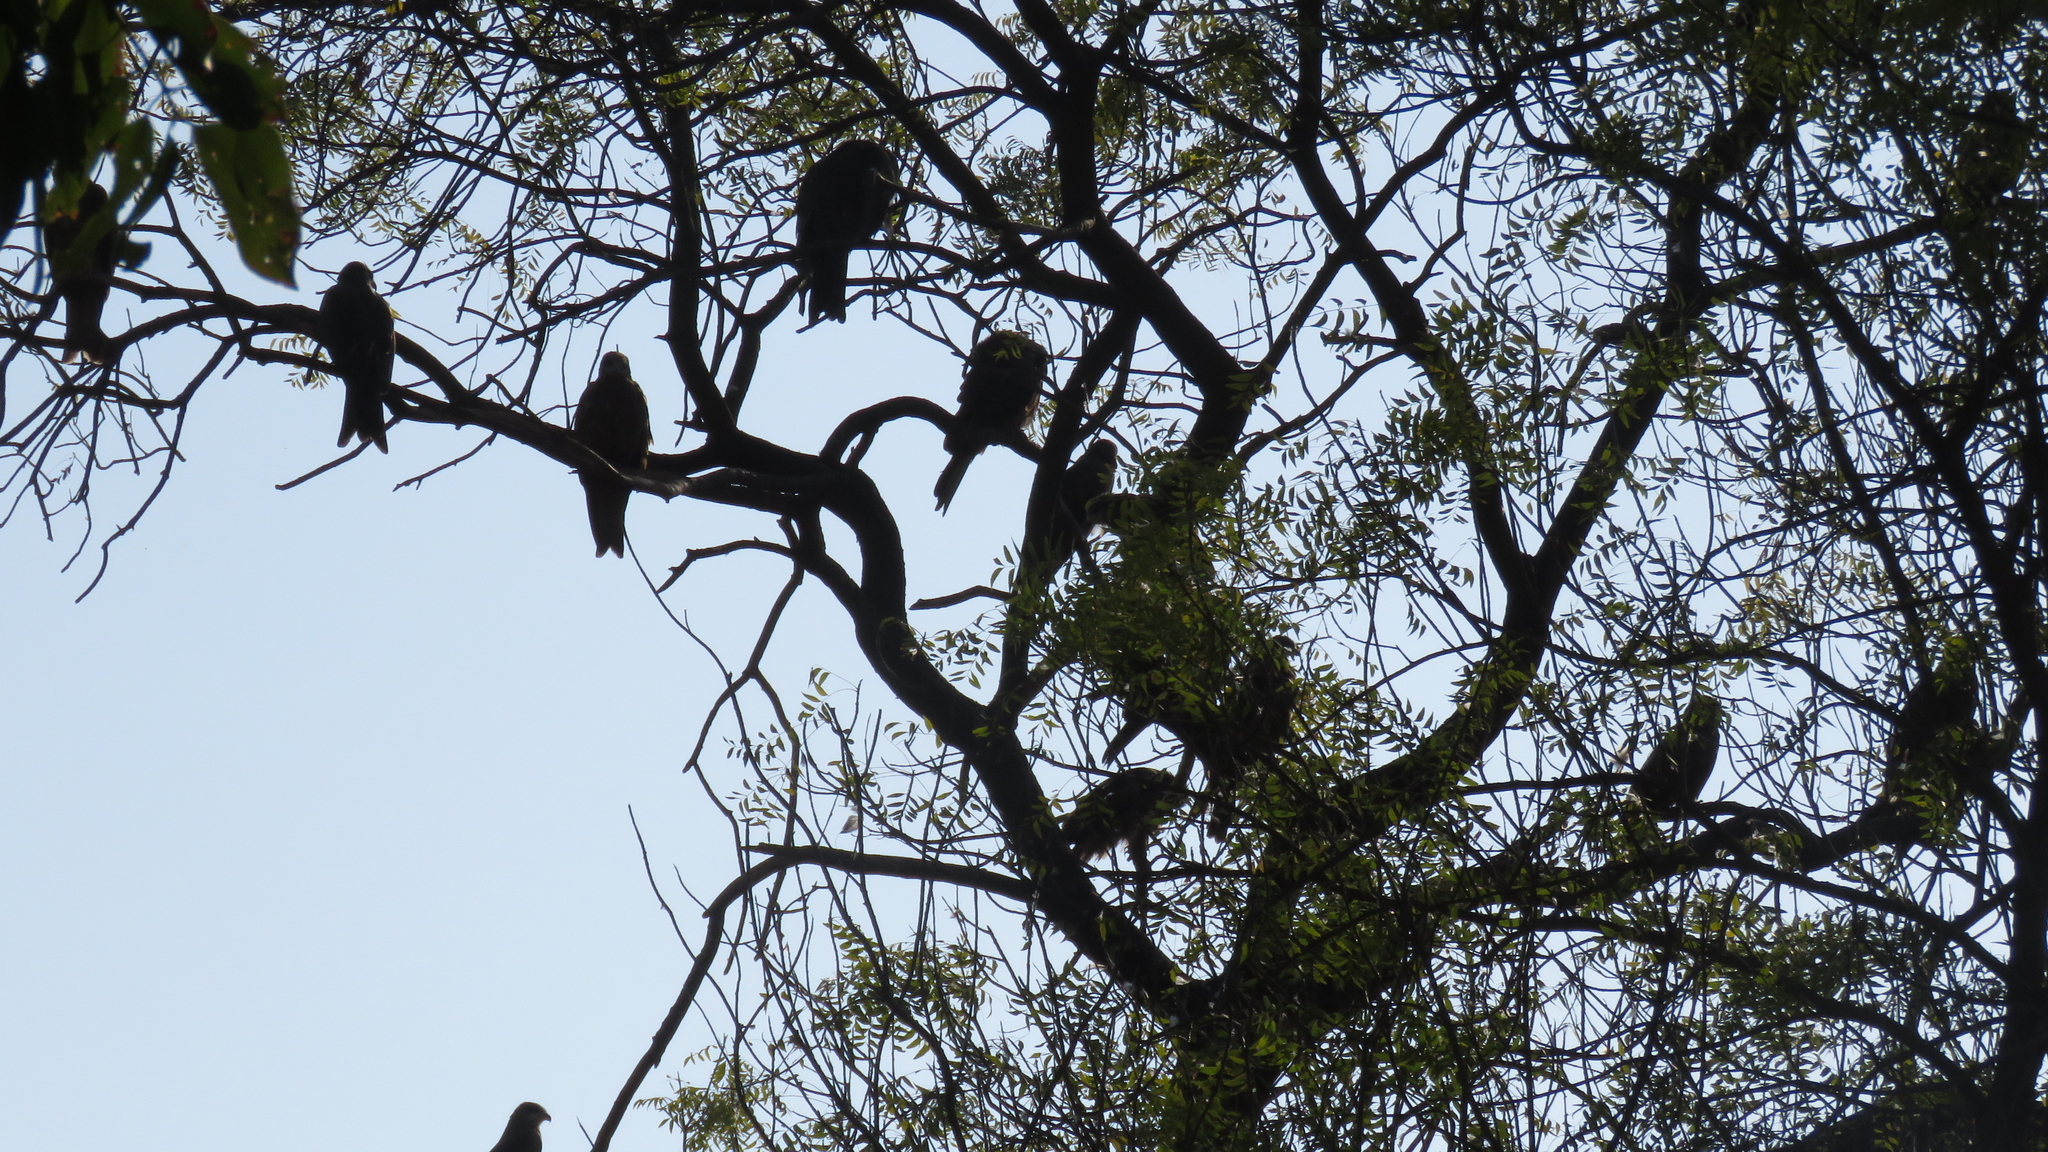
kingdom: Animalia
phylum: Chordata
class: Aves
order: Accipitriformes
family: Accipitridae
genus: Milvus
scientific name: Milvus migrans
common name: Black kite
